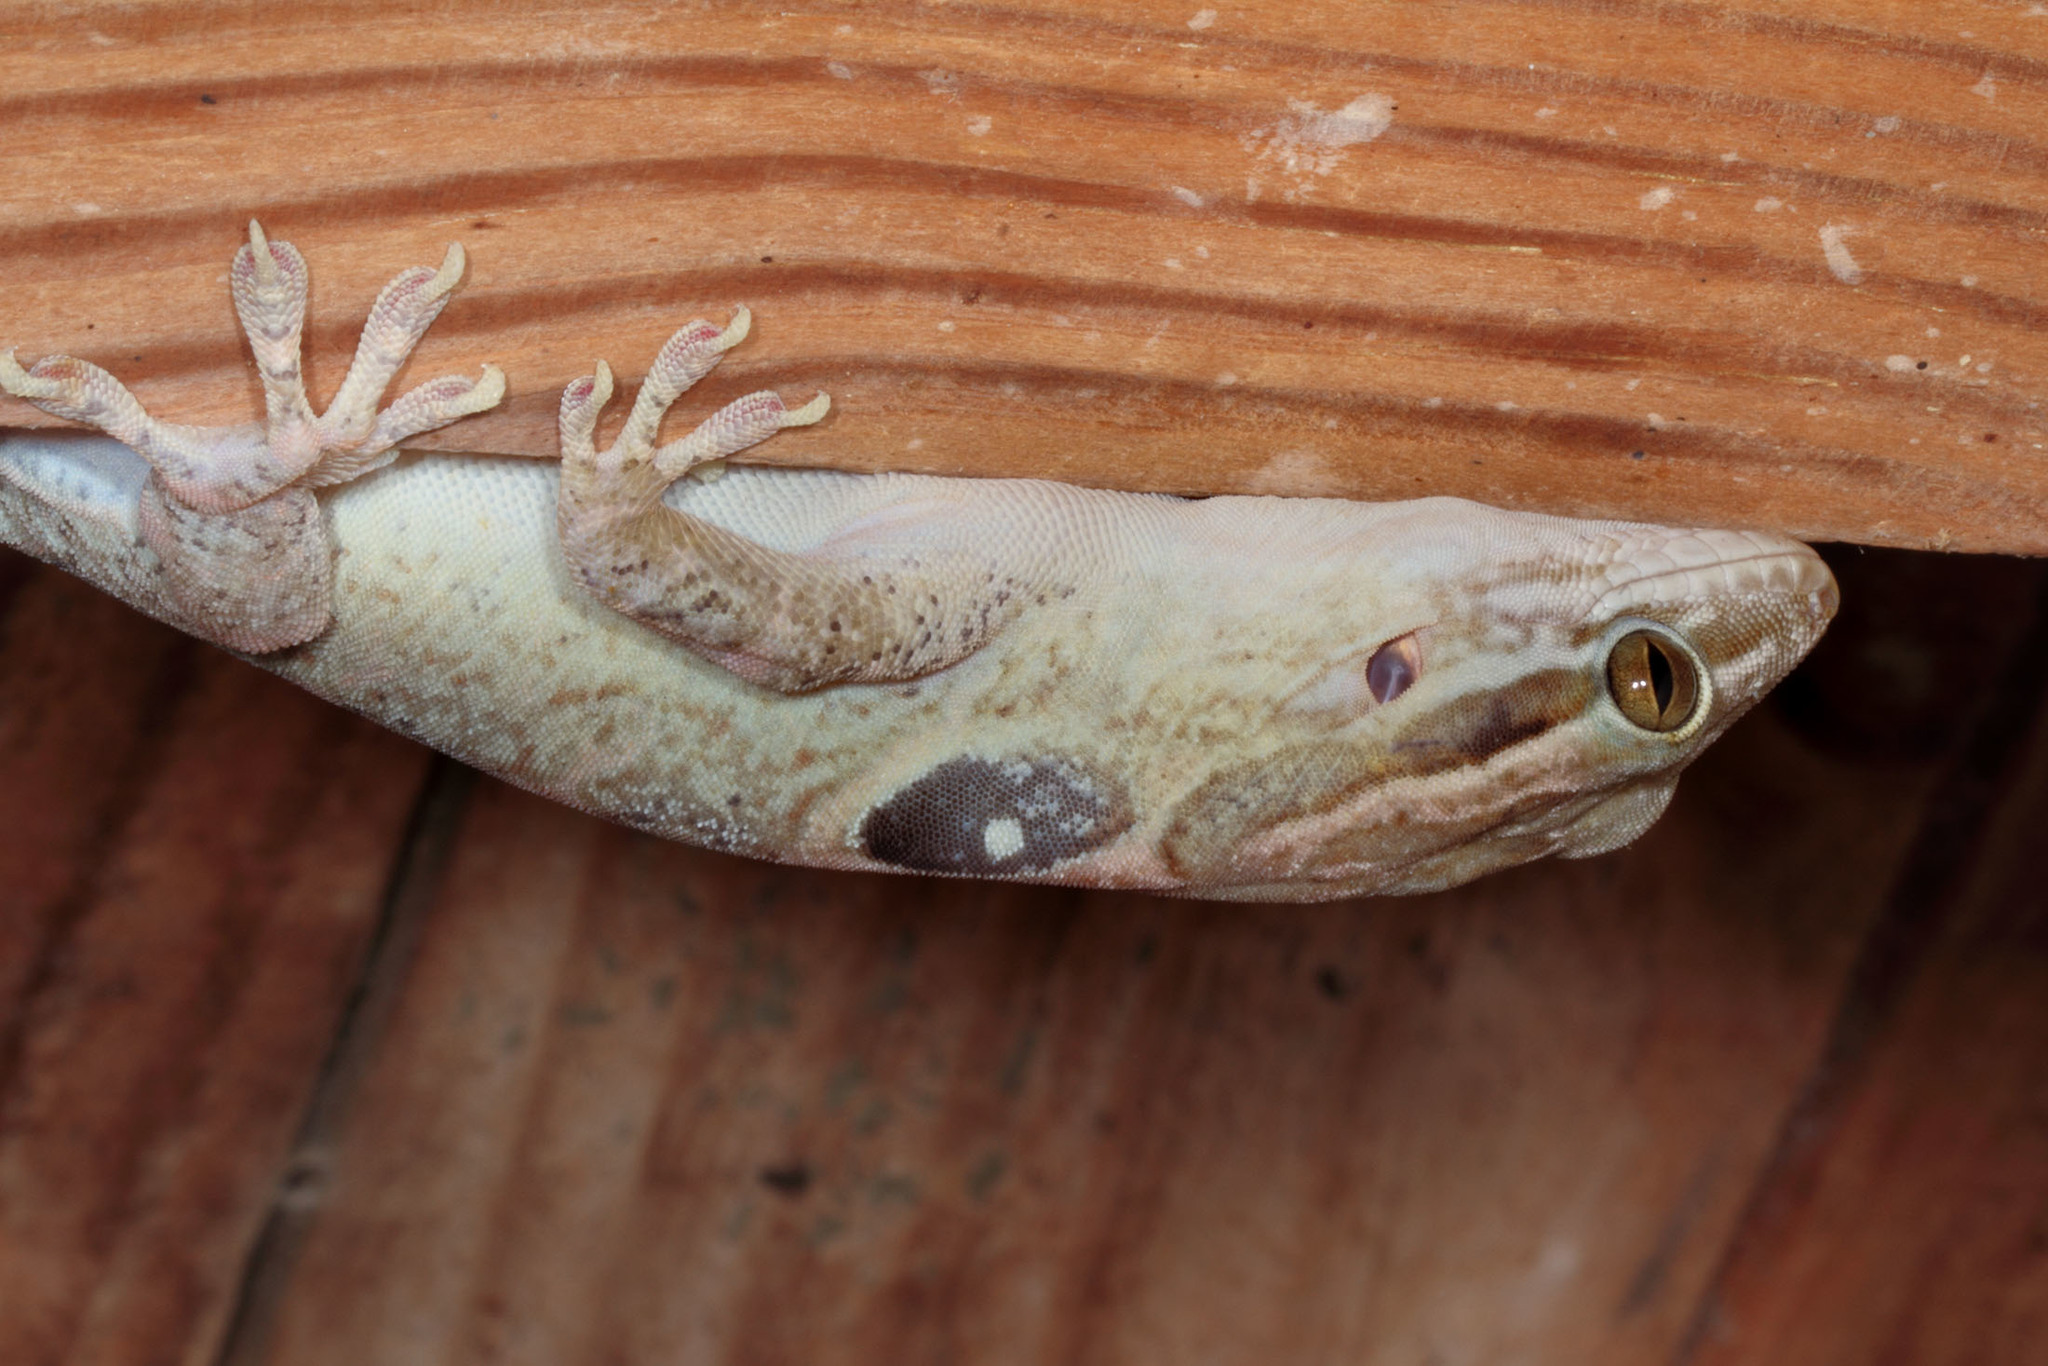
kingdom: Animalia
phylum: Chordata
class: Squamata
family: Sphaerodactylidae
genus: Aristelliger
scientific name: Aristelliger lar
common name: Spotted caribbean gecko
